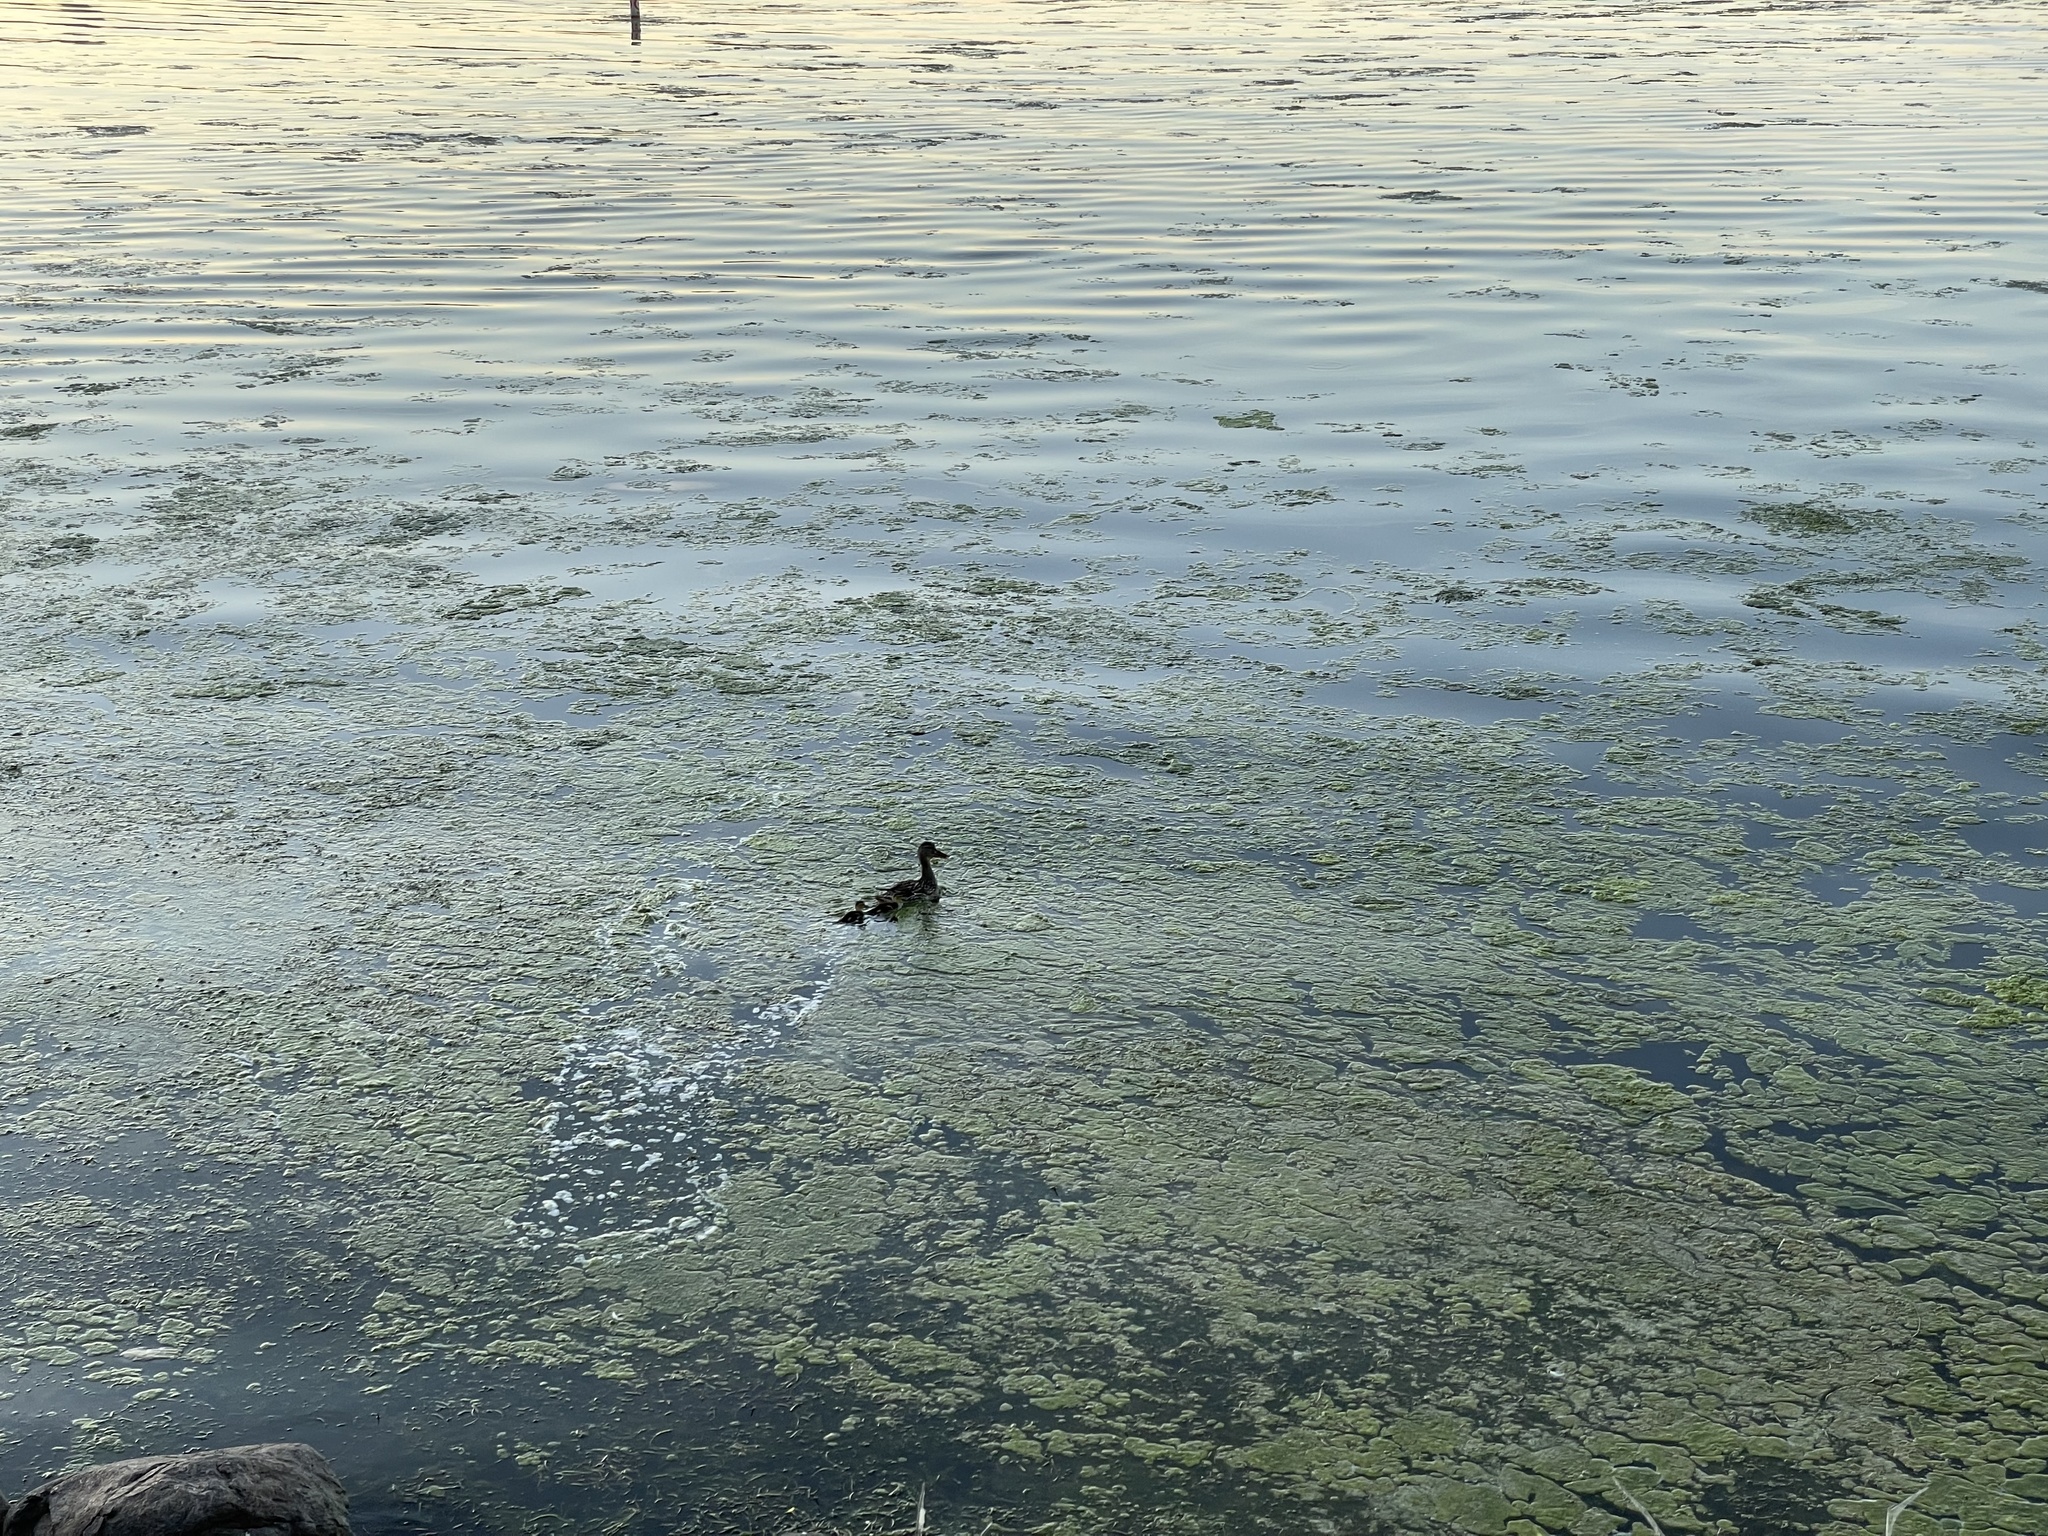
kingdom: Animalia
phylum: Chordata
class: Aves
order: Anseriformes
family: Anatidae
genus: Anas
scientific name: Anas platyrhynchos
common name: Mallard
